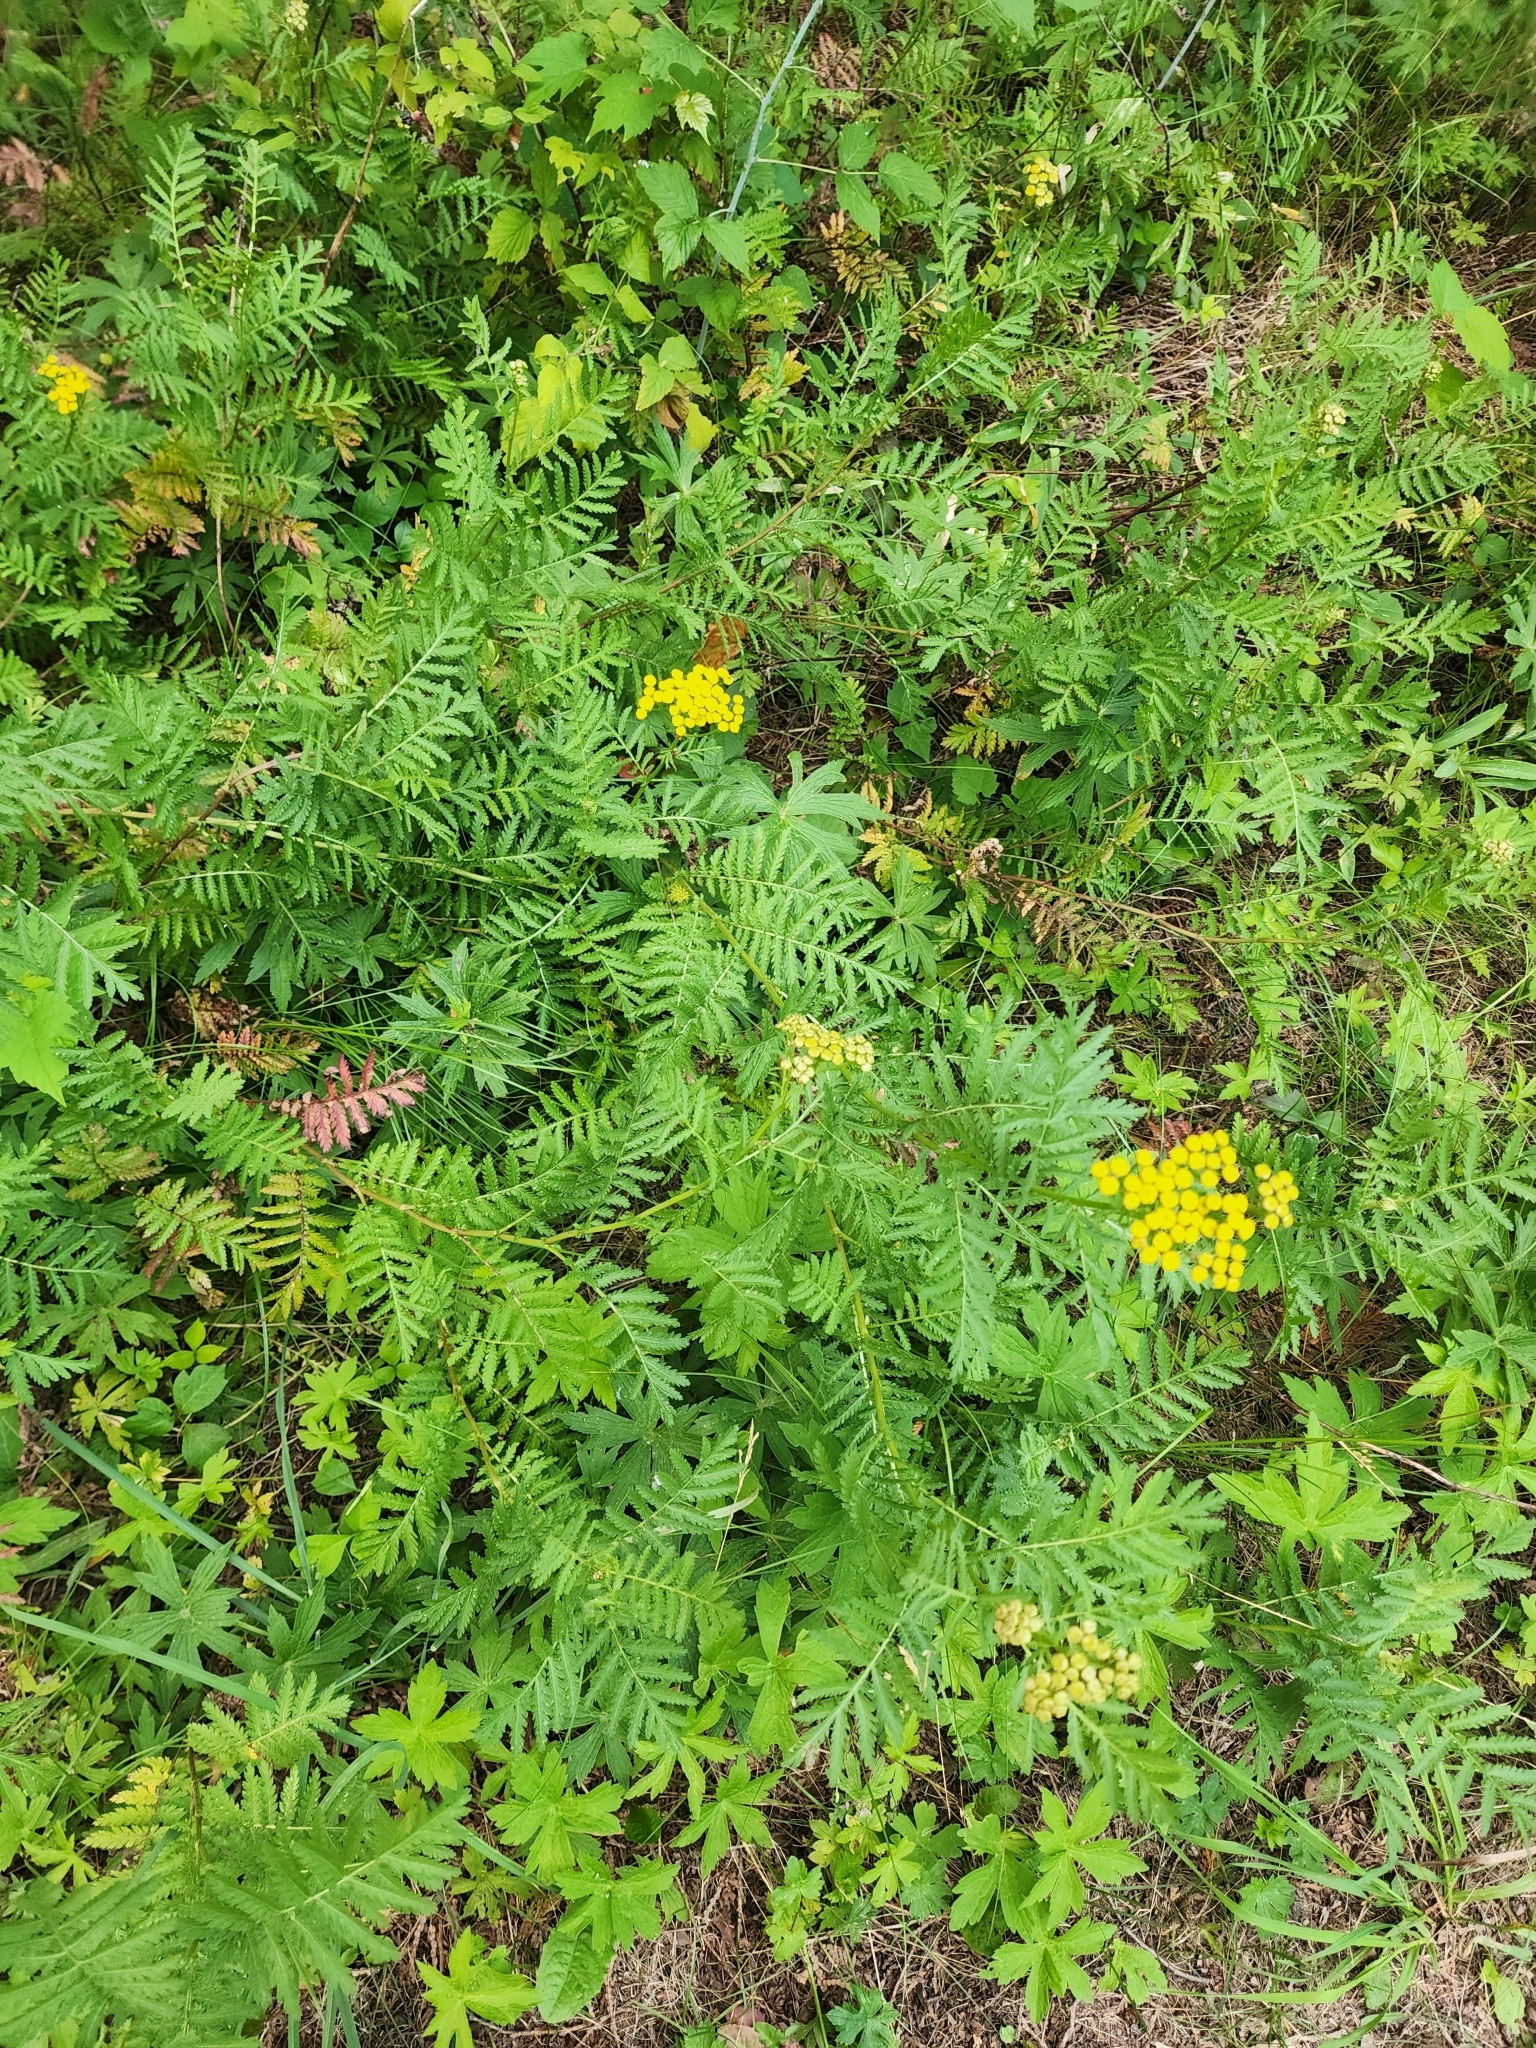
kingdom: Plantae
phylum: Tracheophyta
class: Magnoliopsida
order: Asterales
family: Asteraceae
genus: Tanacetum
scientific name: Tanacetum vulgare
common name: Common tansy
